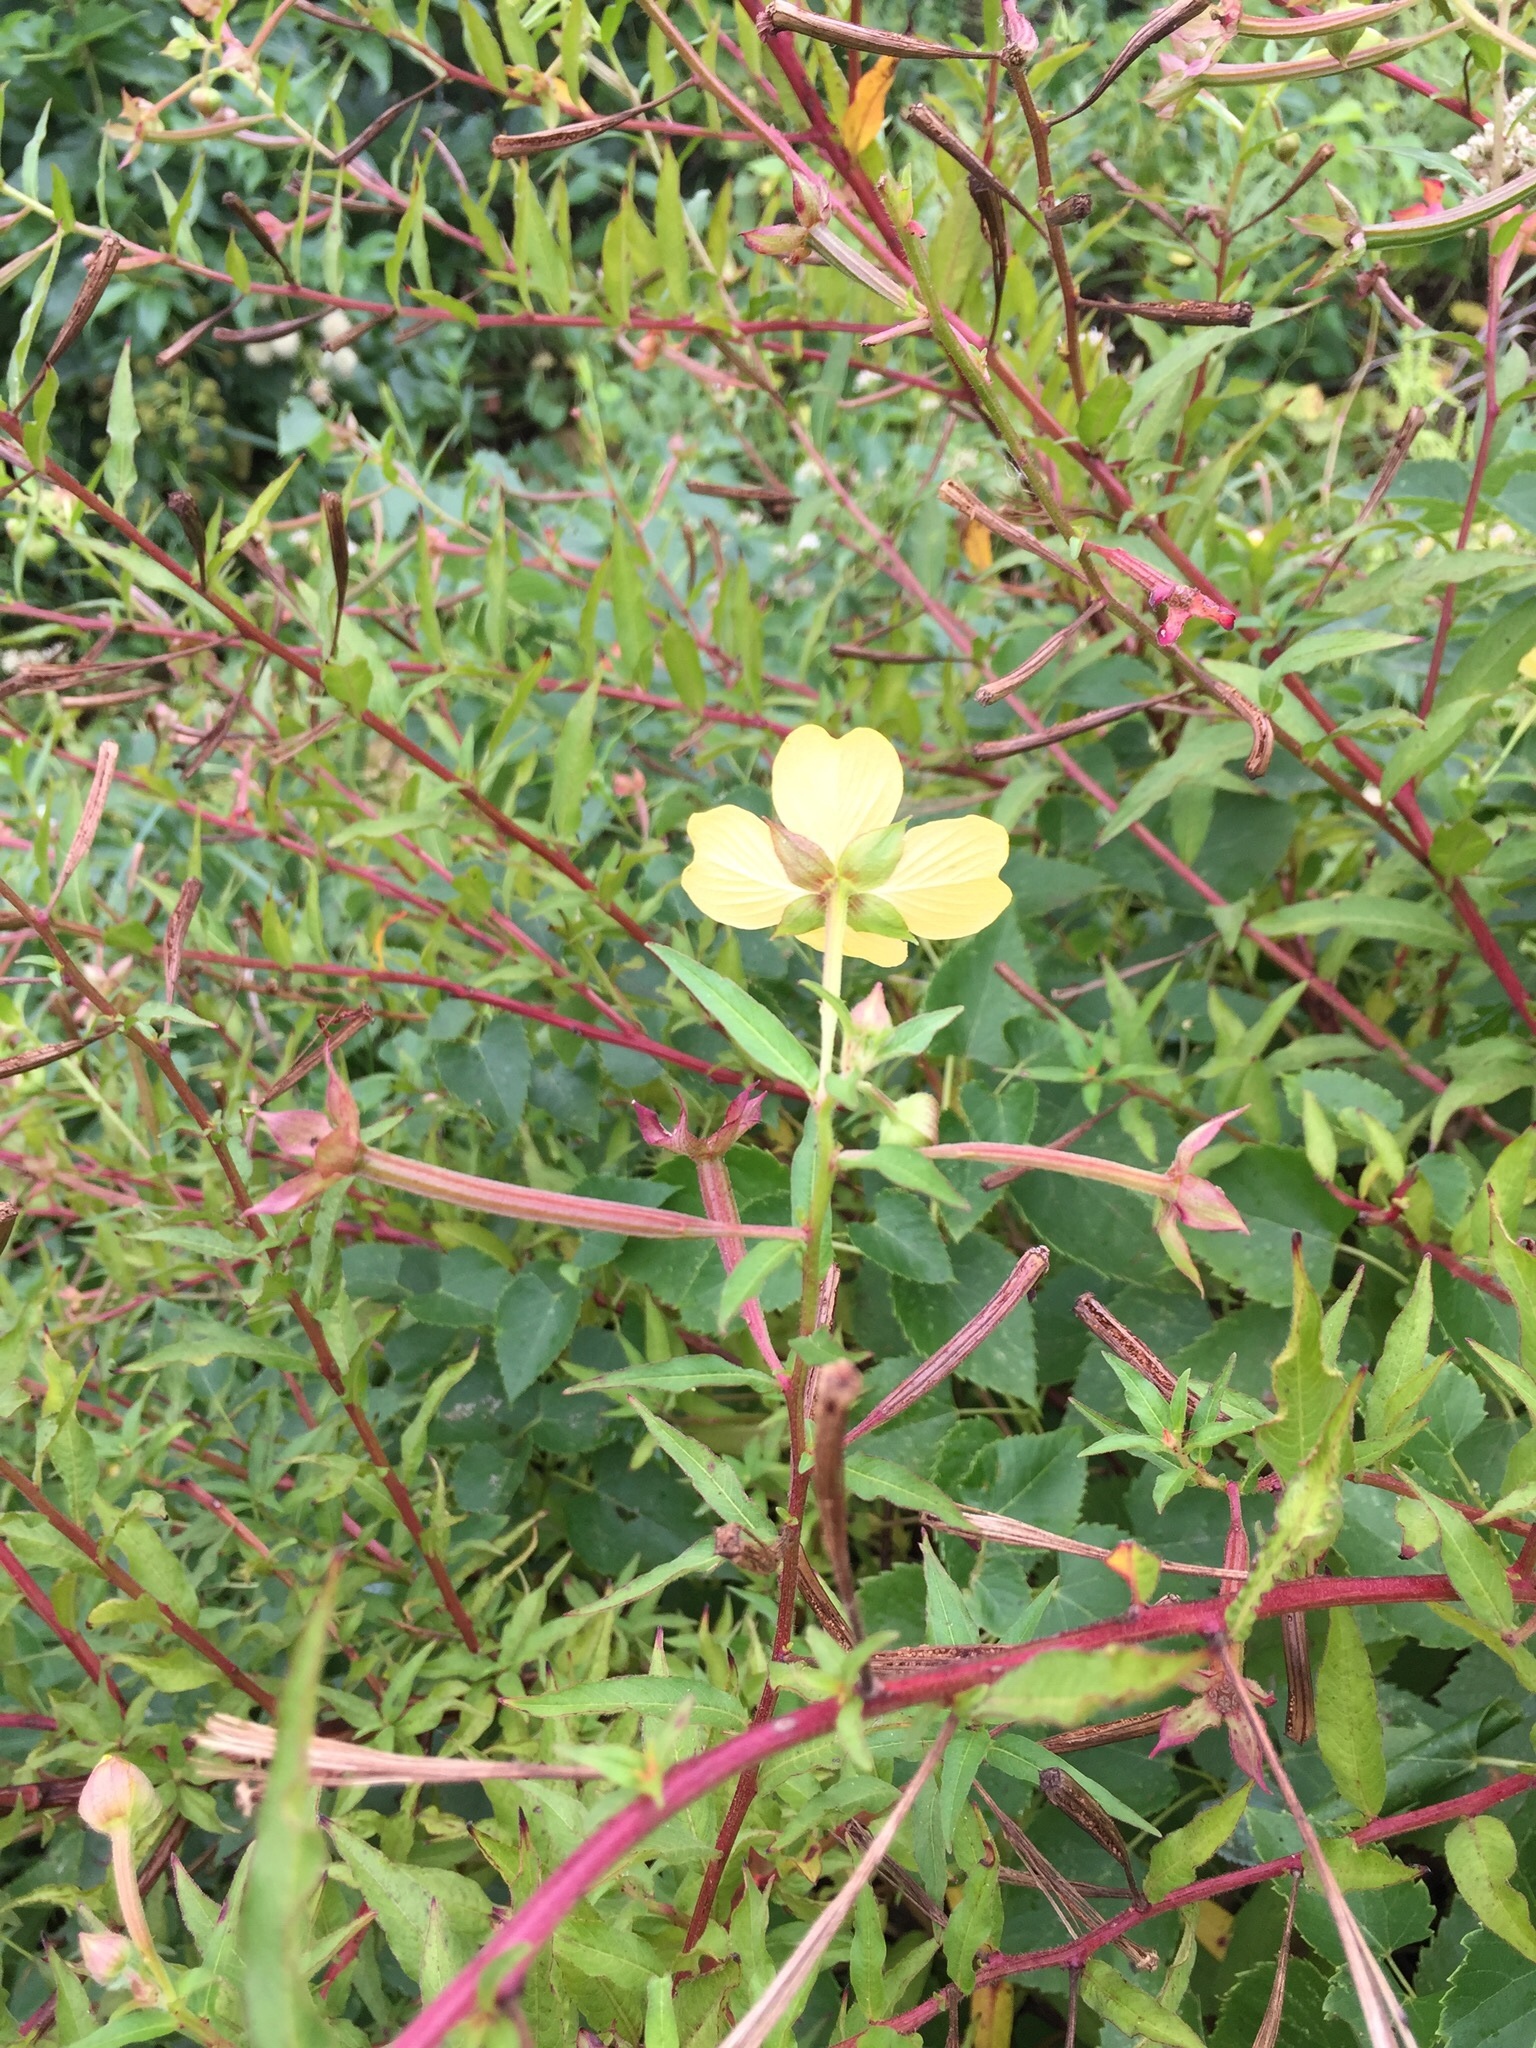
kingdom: Plantae
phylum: Tracheophyta
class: Magnoliopsida
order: Myrtales
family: Onagraceae
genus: Ludwigia
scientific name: Ludwigia octovalvis
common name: Water-primrose
